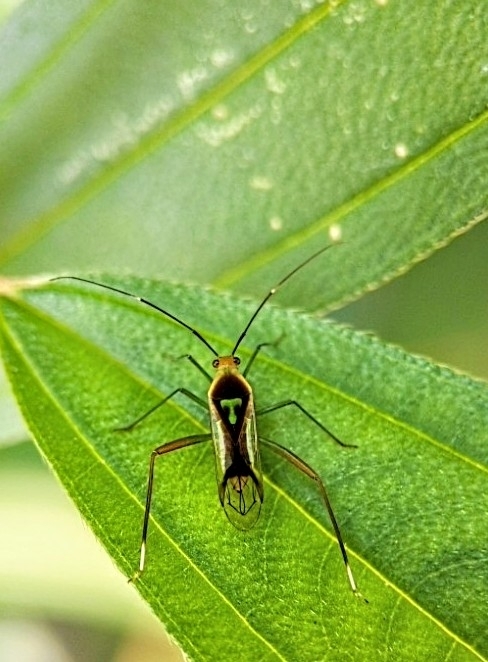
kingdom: Animalia
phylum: Arthropoda
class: Insecta
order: Hemiptera
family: Miridae
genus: Macrolonius
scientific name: Macrolonius sobrinus
